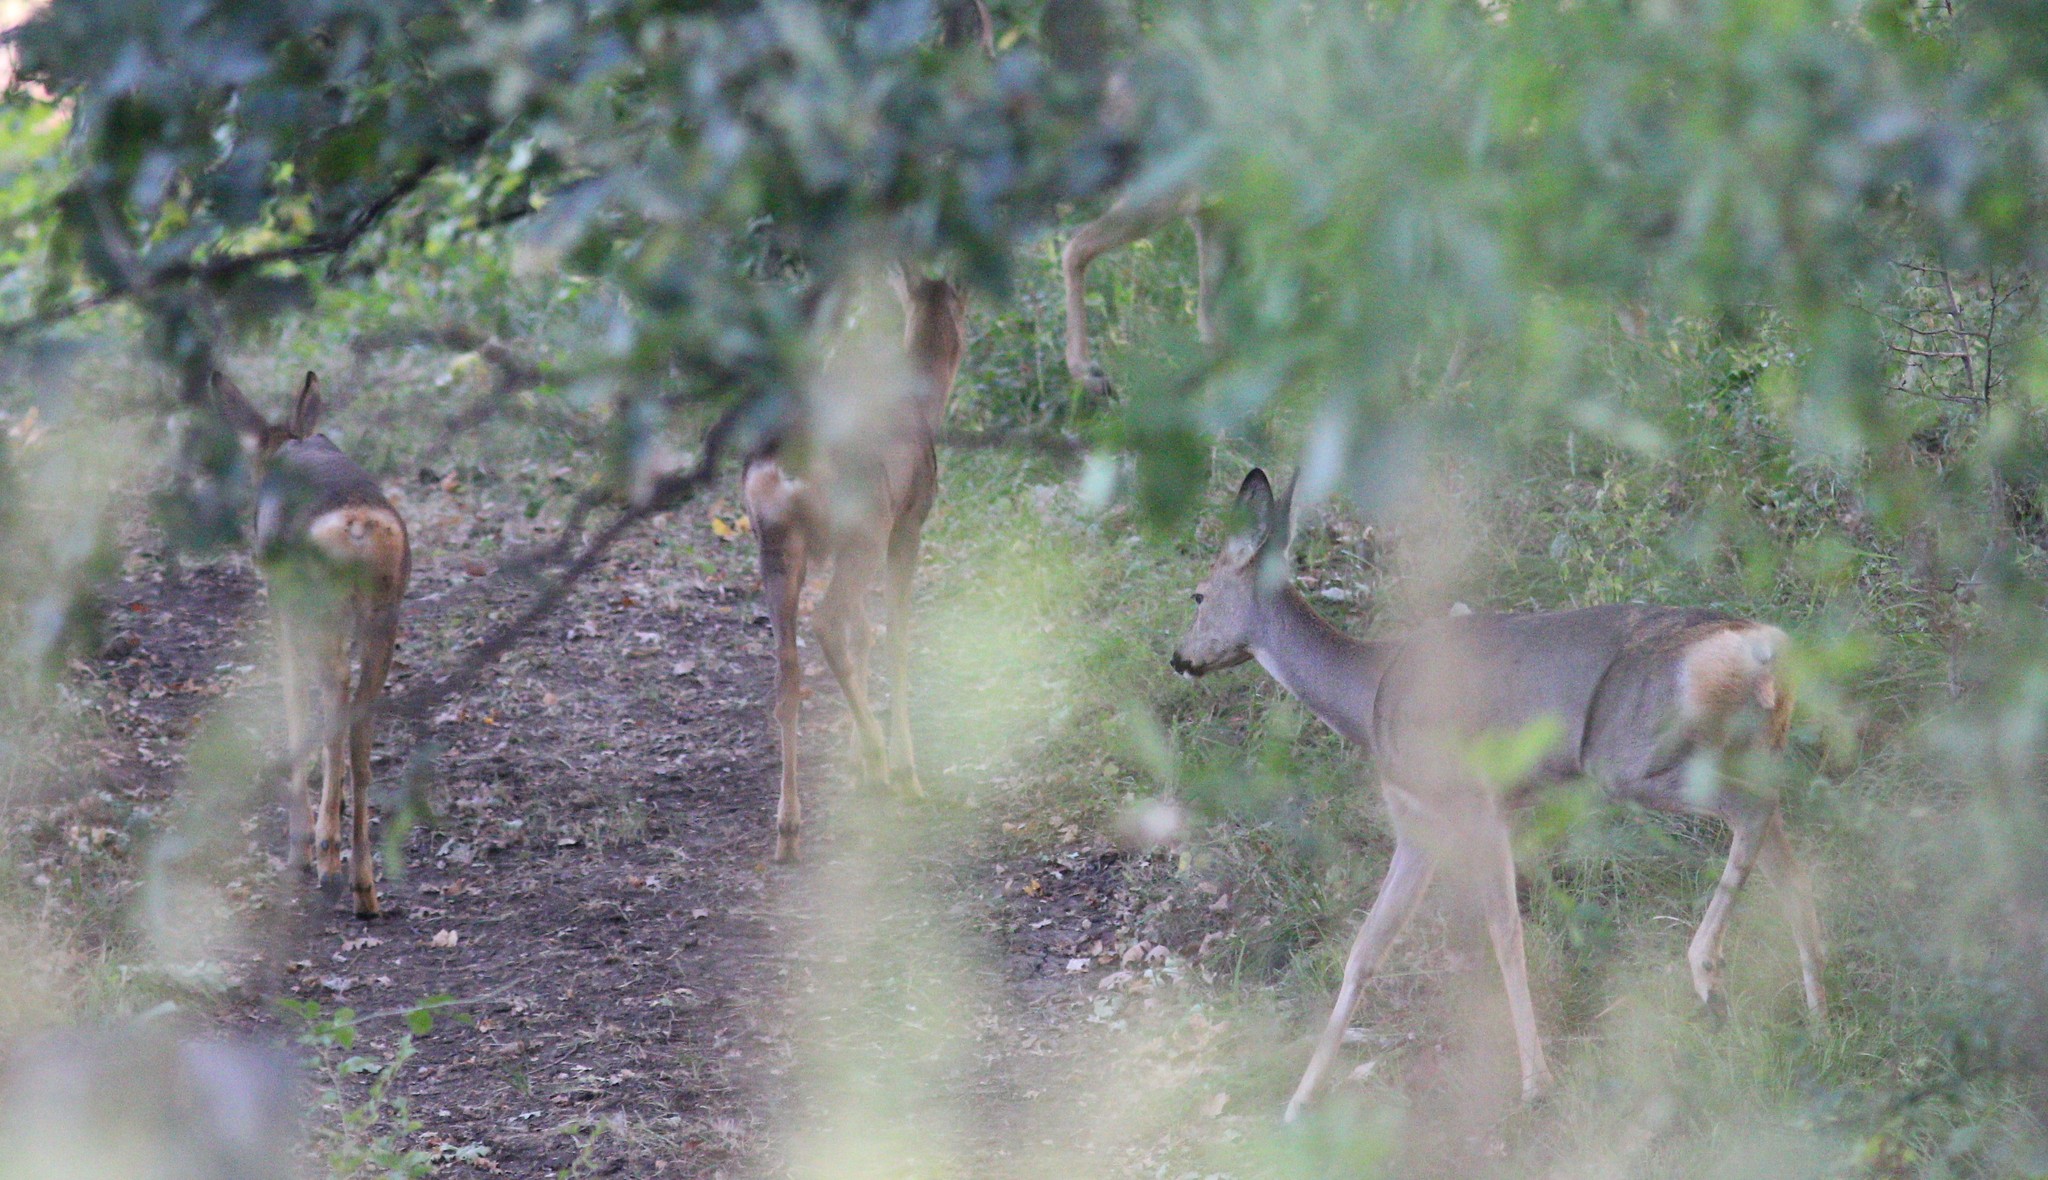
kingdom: Animalia
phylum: Chordata
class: Mammalia
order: Artiodactyla
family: Cervidae
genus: Capreolus
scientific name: Capreolus pygargus
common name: Siberian roe
